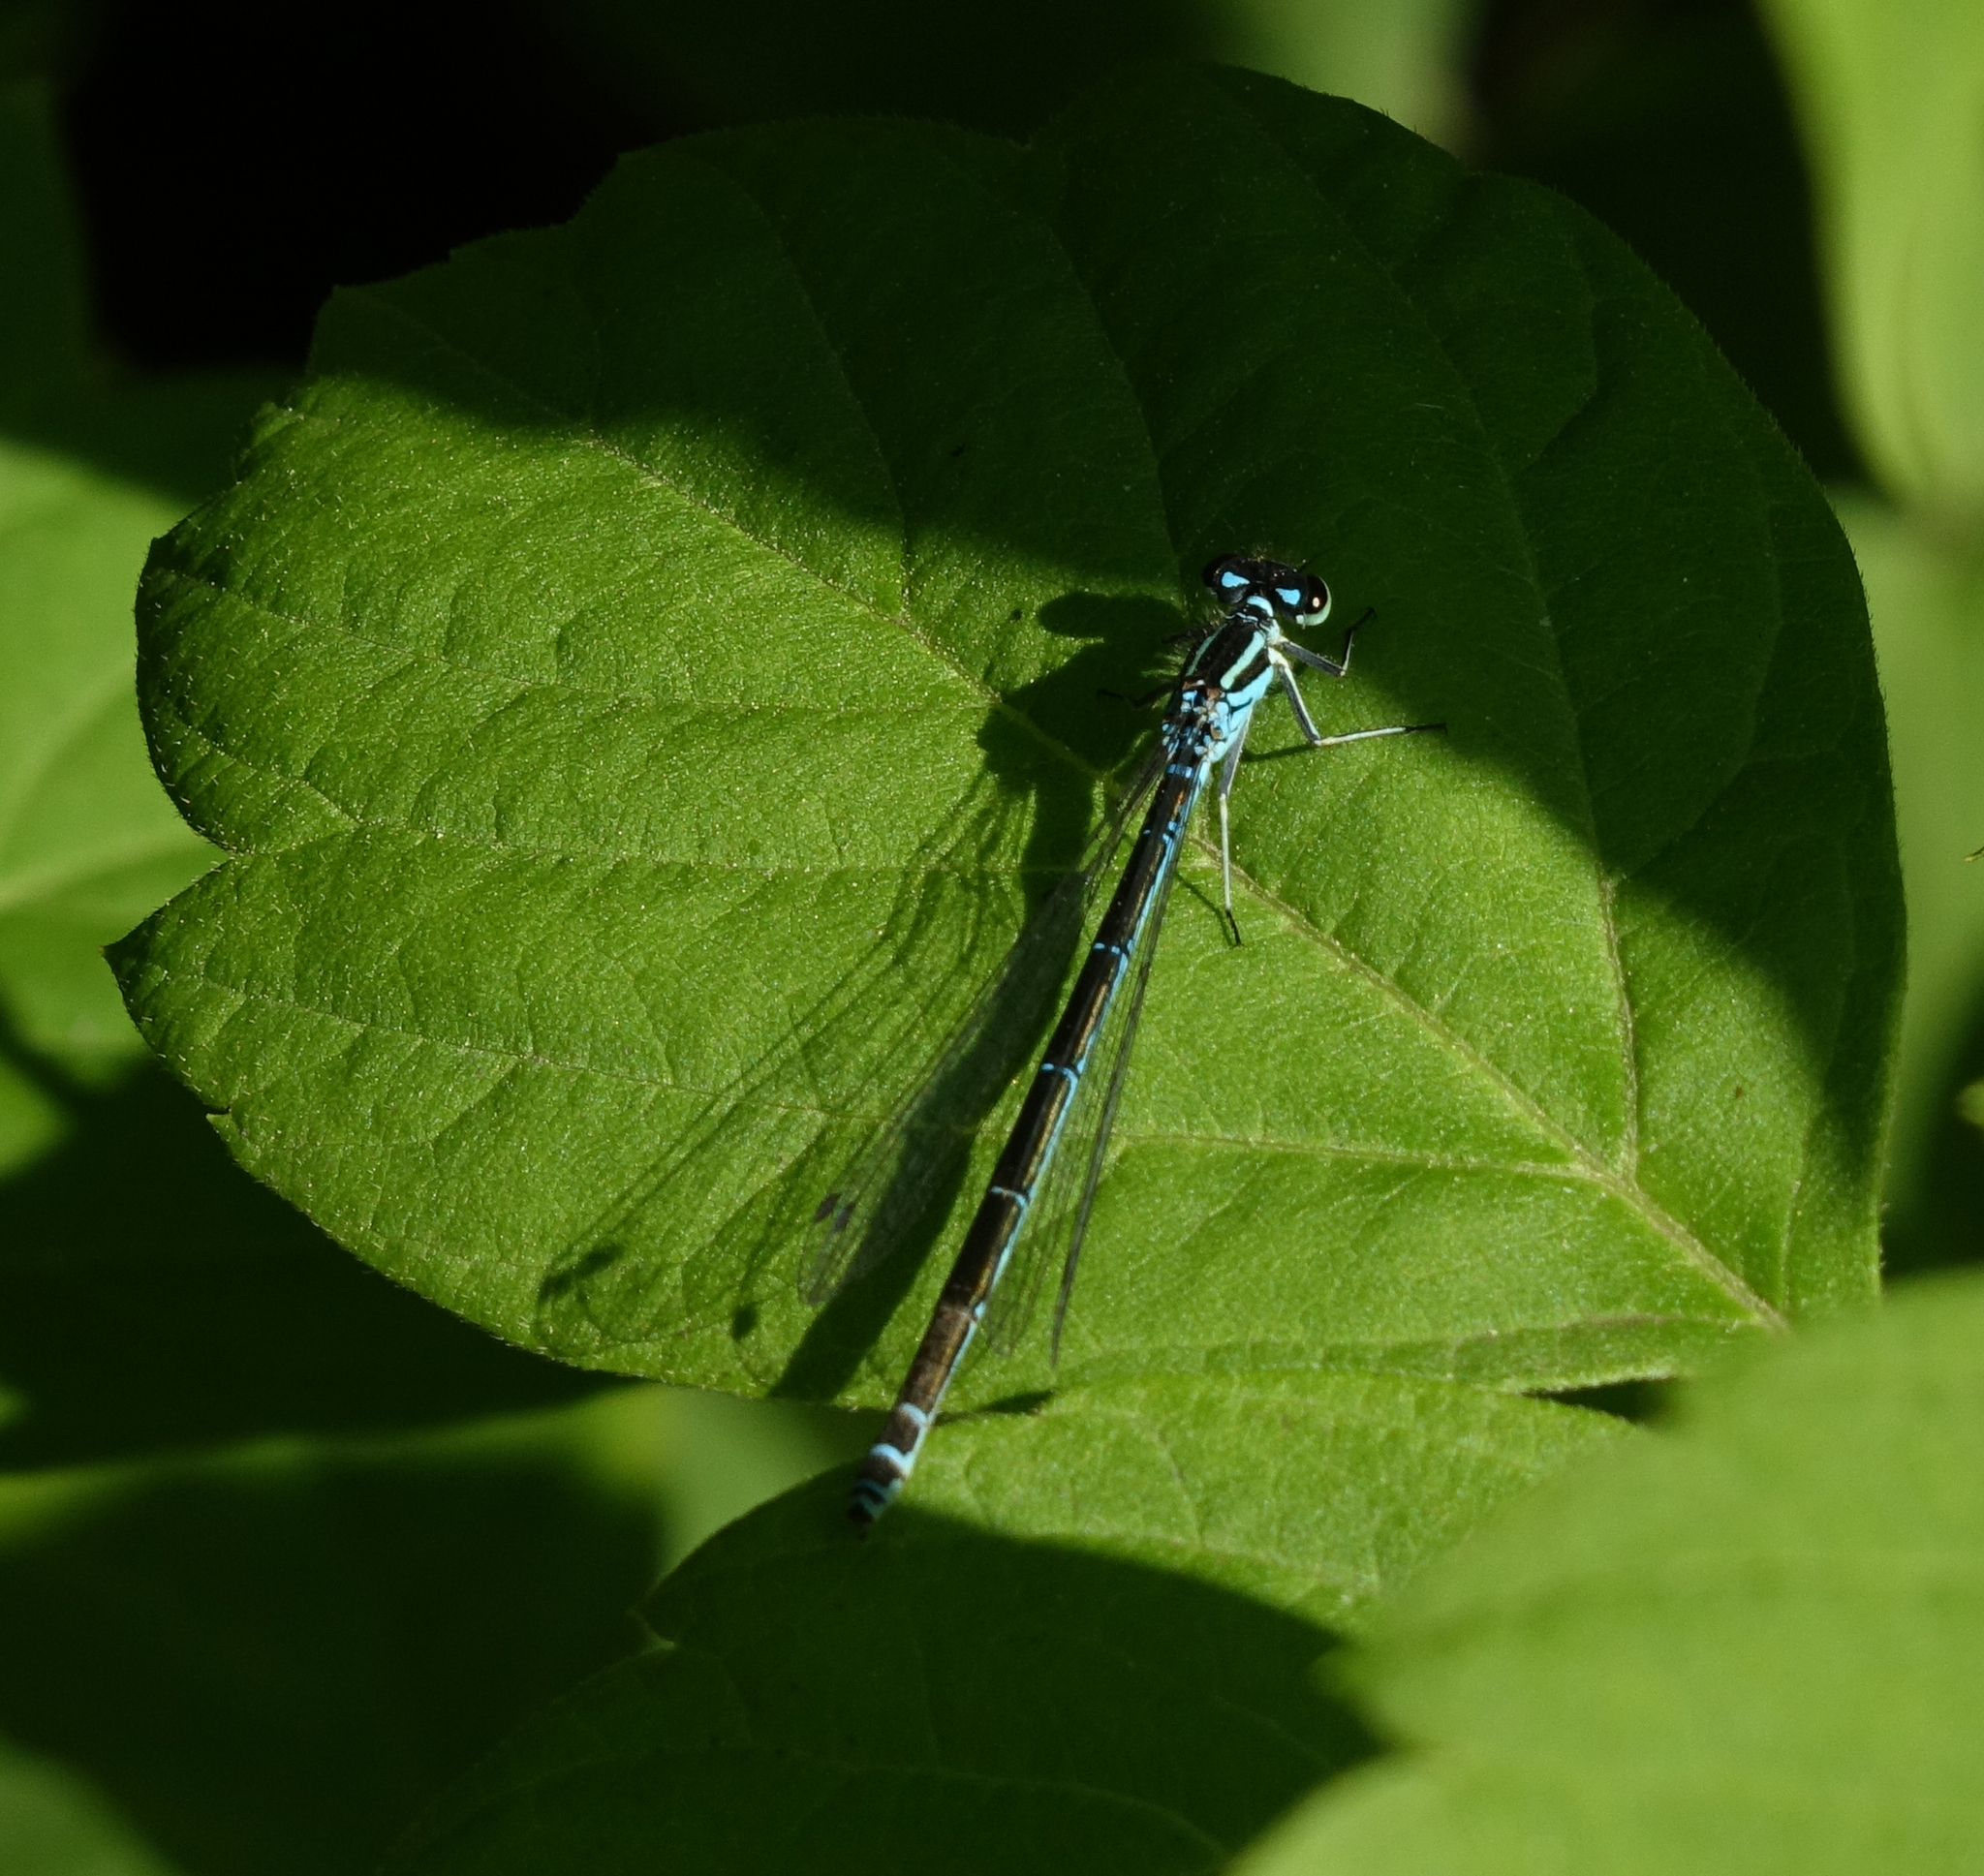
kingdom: Animalia
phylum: Arthropoda
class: Insecta
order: Odonata
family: Coenagrionidae
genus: Coenagrion
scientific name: Coenagrion puella
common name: Azure damselfly
